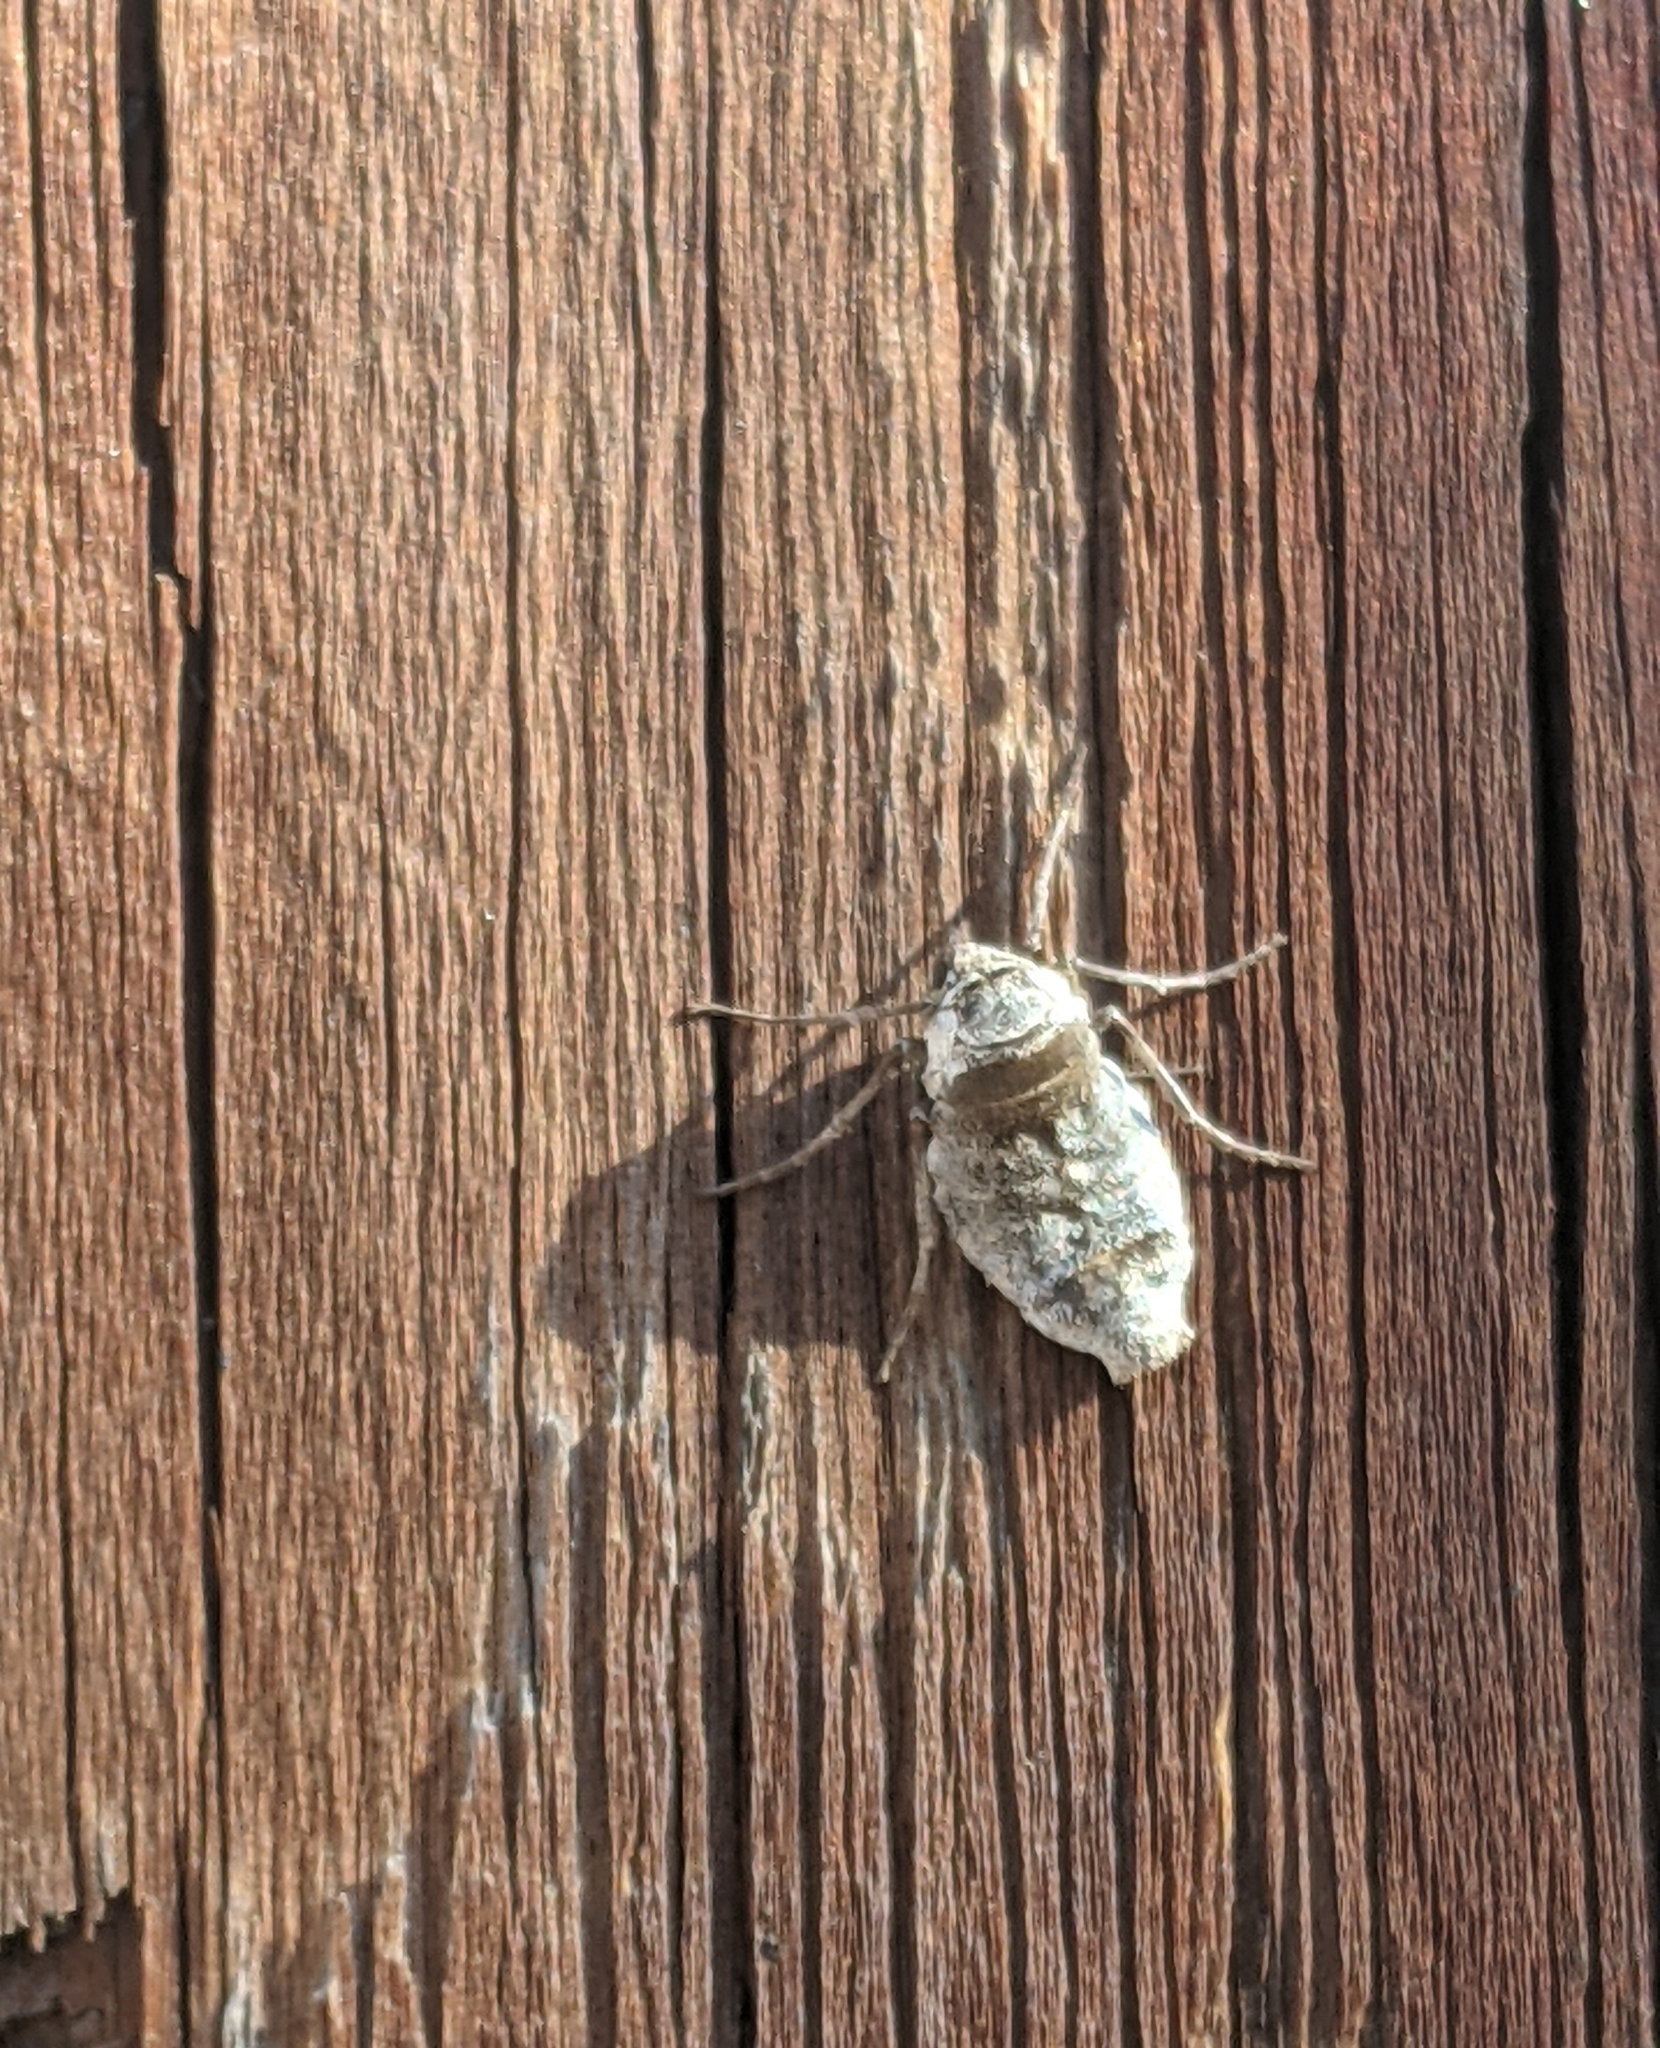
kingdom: Animalia
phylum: Arthropoda
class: Insecta
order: Lepidoptera
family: Geometridae
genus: Alsophila
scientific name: Alsophila pometaria
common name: Fall cankerworm
